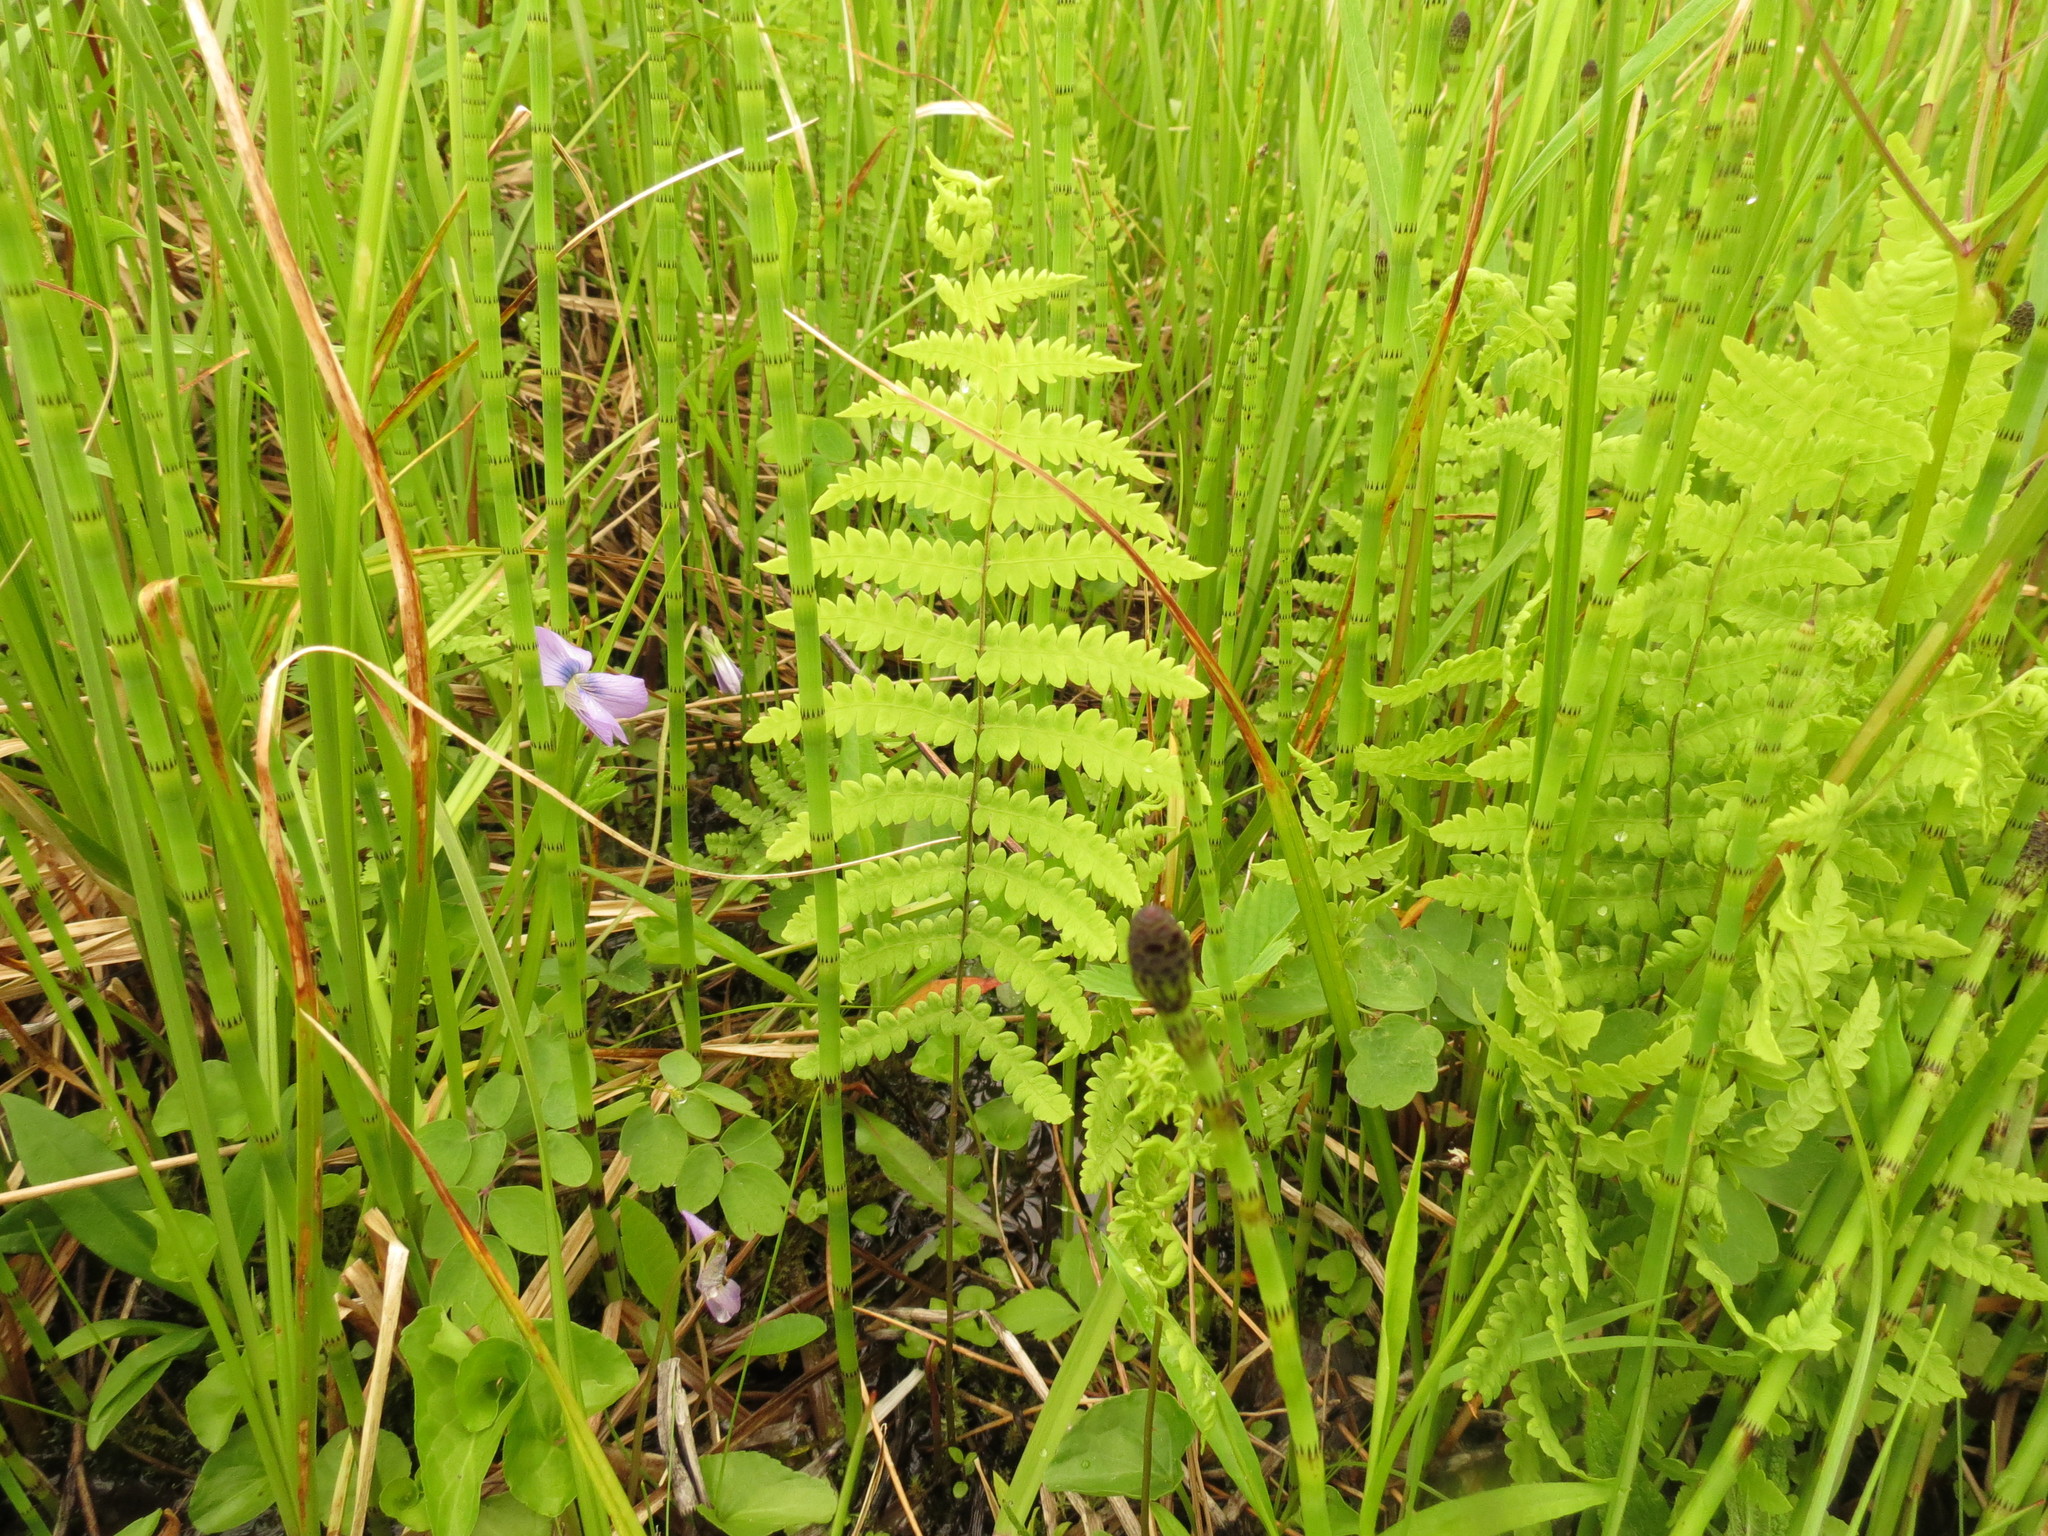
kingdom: Plantae
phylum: Tracheophyta
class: Polypodiopsida
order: Polypodiales
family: Thelypteridaceae
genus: Thelypteris
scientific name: Thelypteris palustris
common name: Marsh fern
